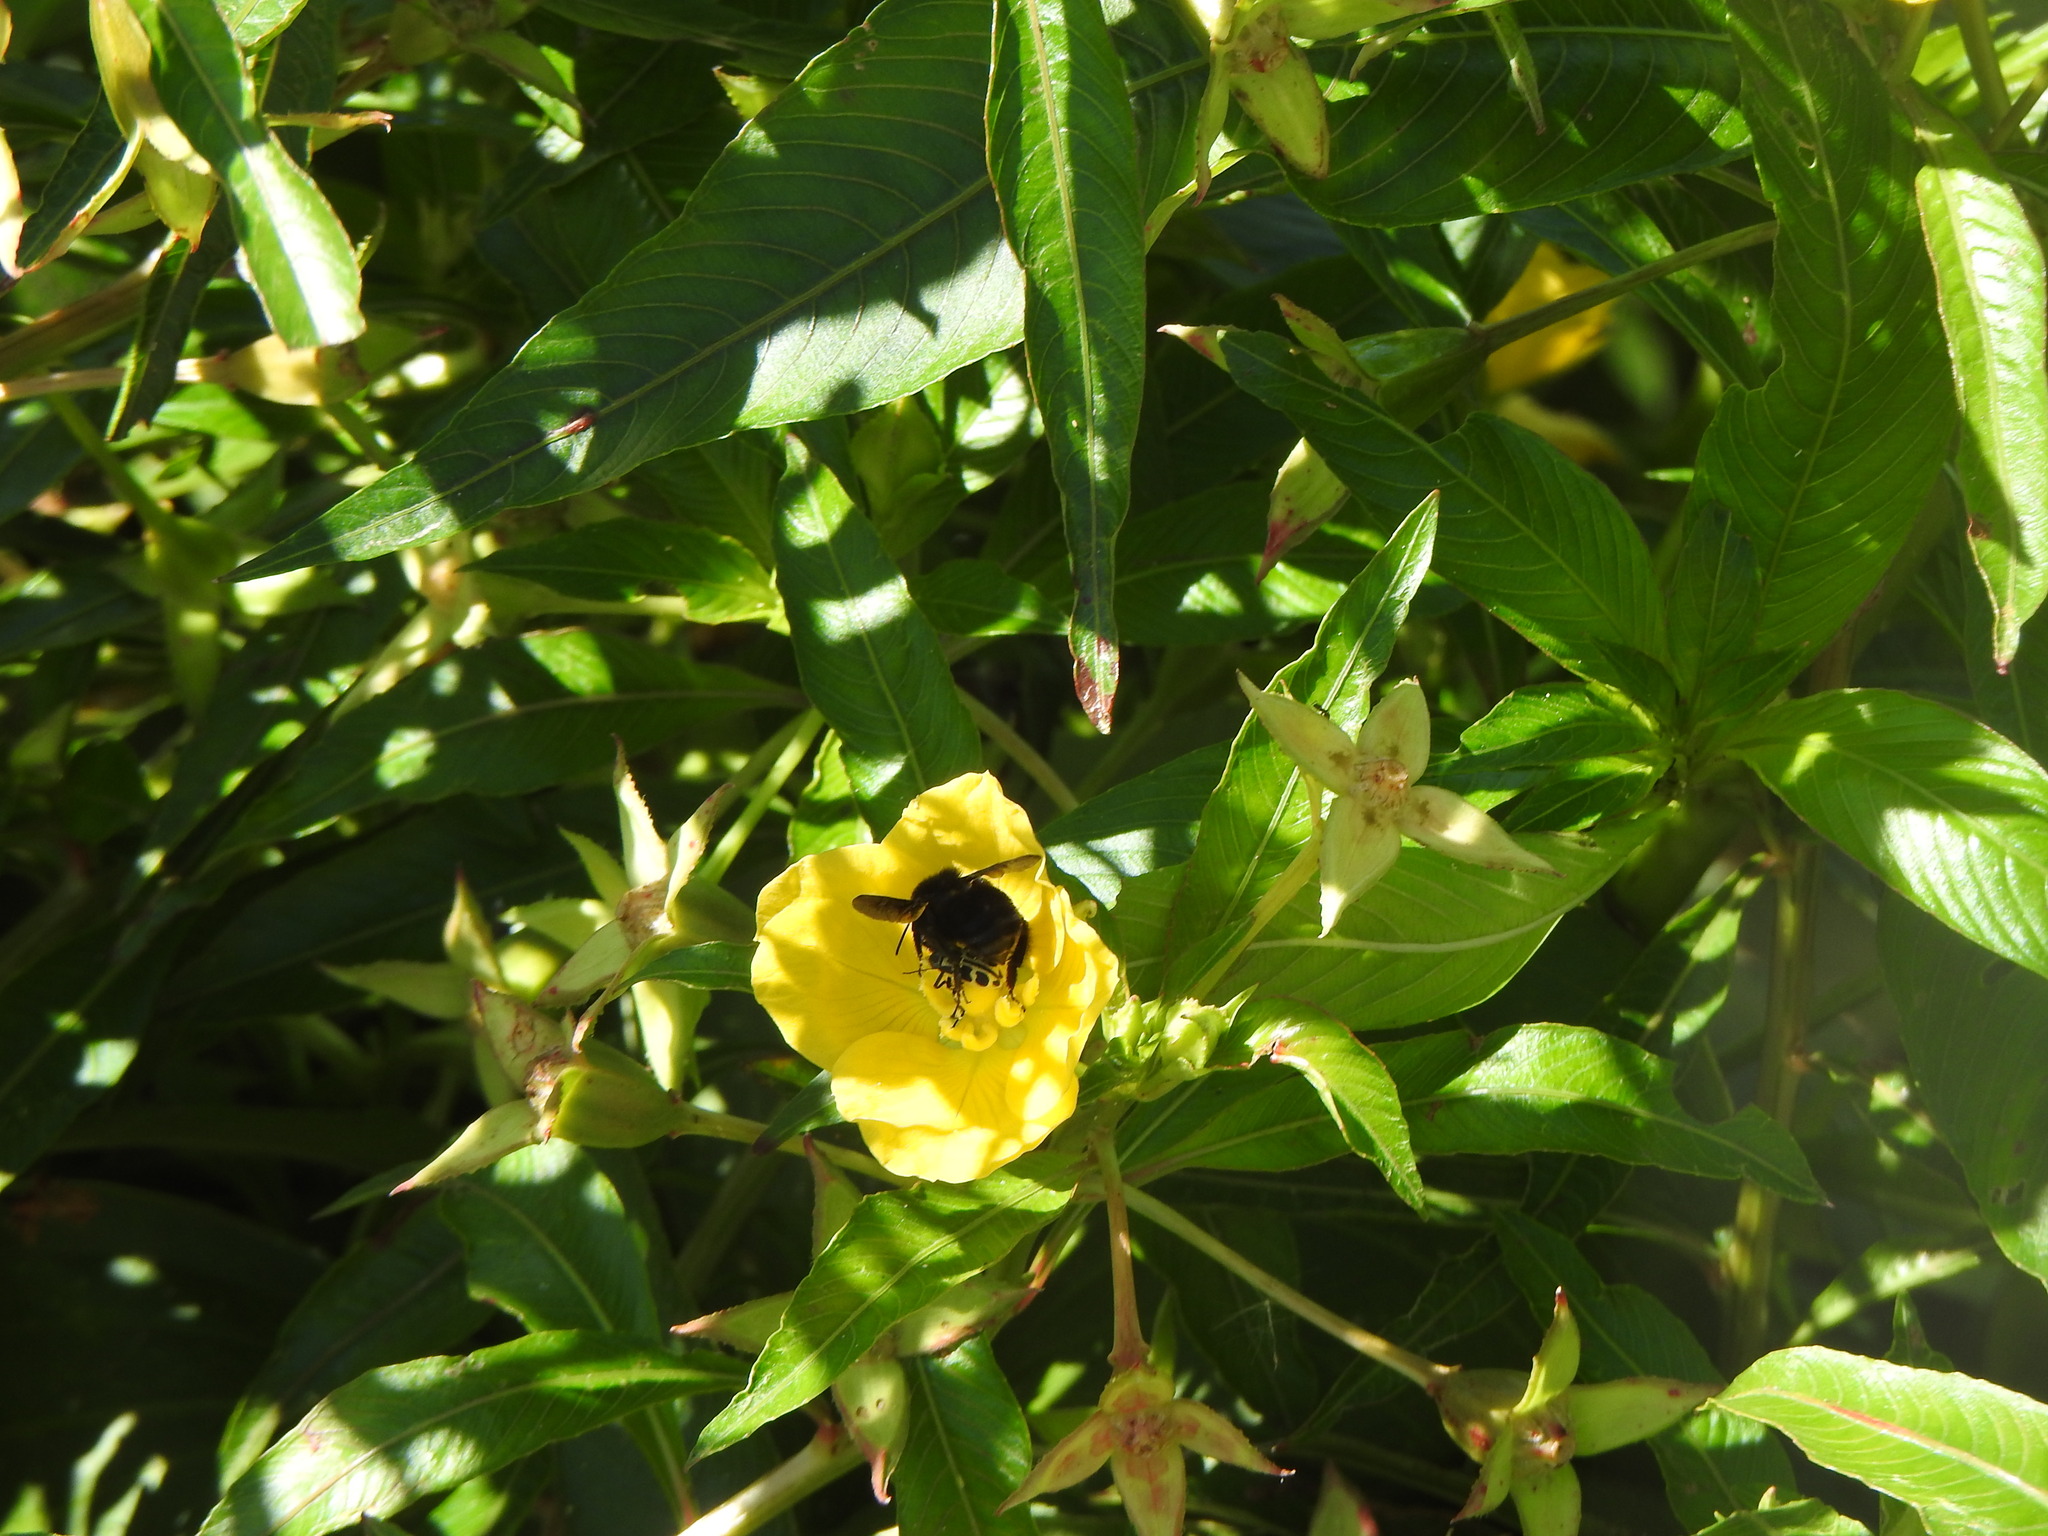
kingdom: Animalia
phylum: Arthropoda
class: Insecta
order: Hymenoptera
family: Apidae
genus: Bombus
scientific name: Bombus pauloensis
